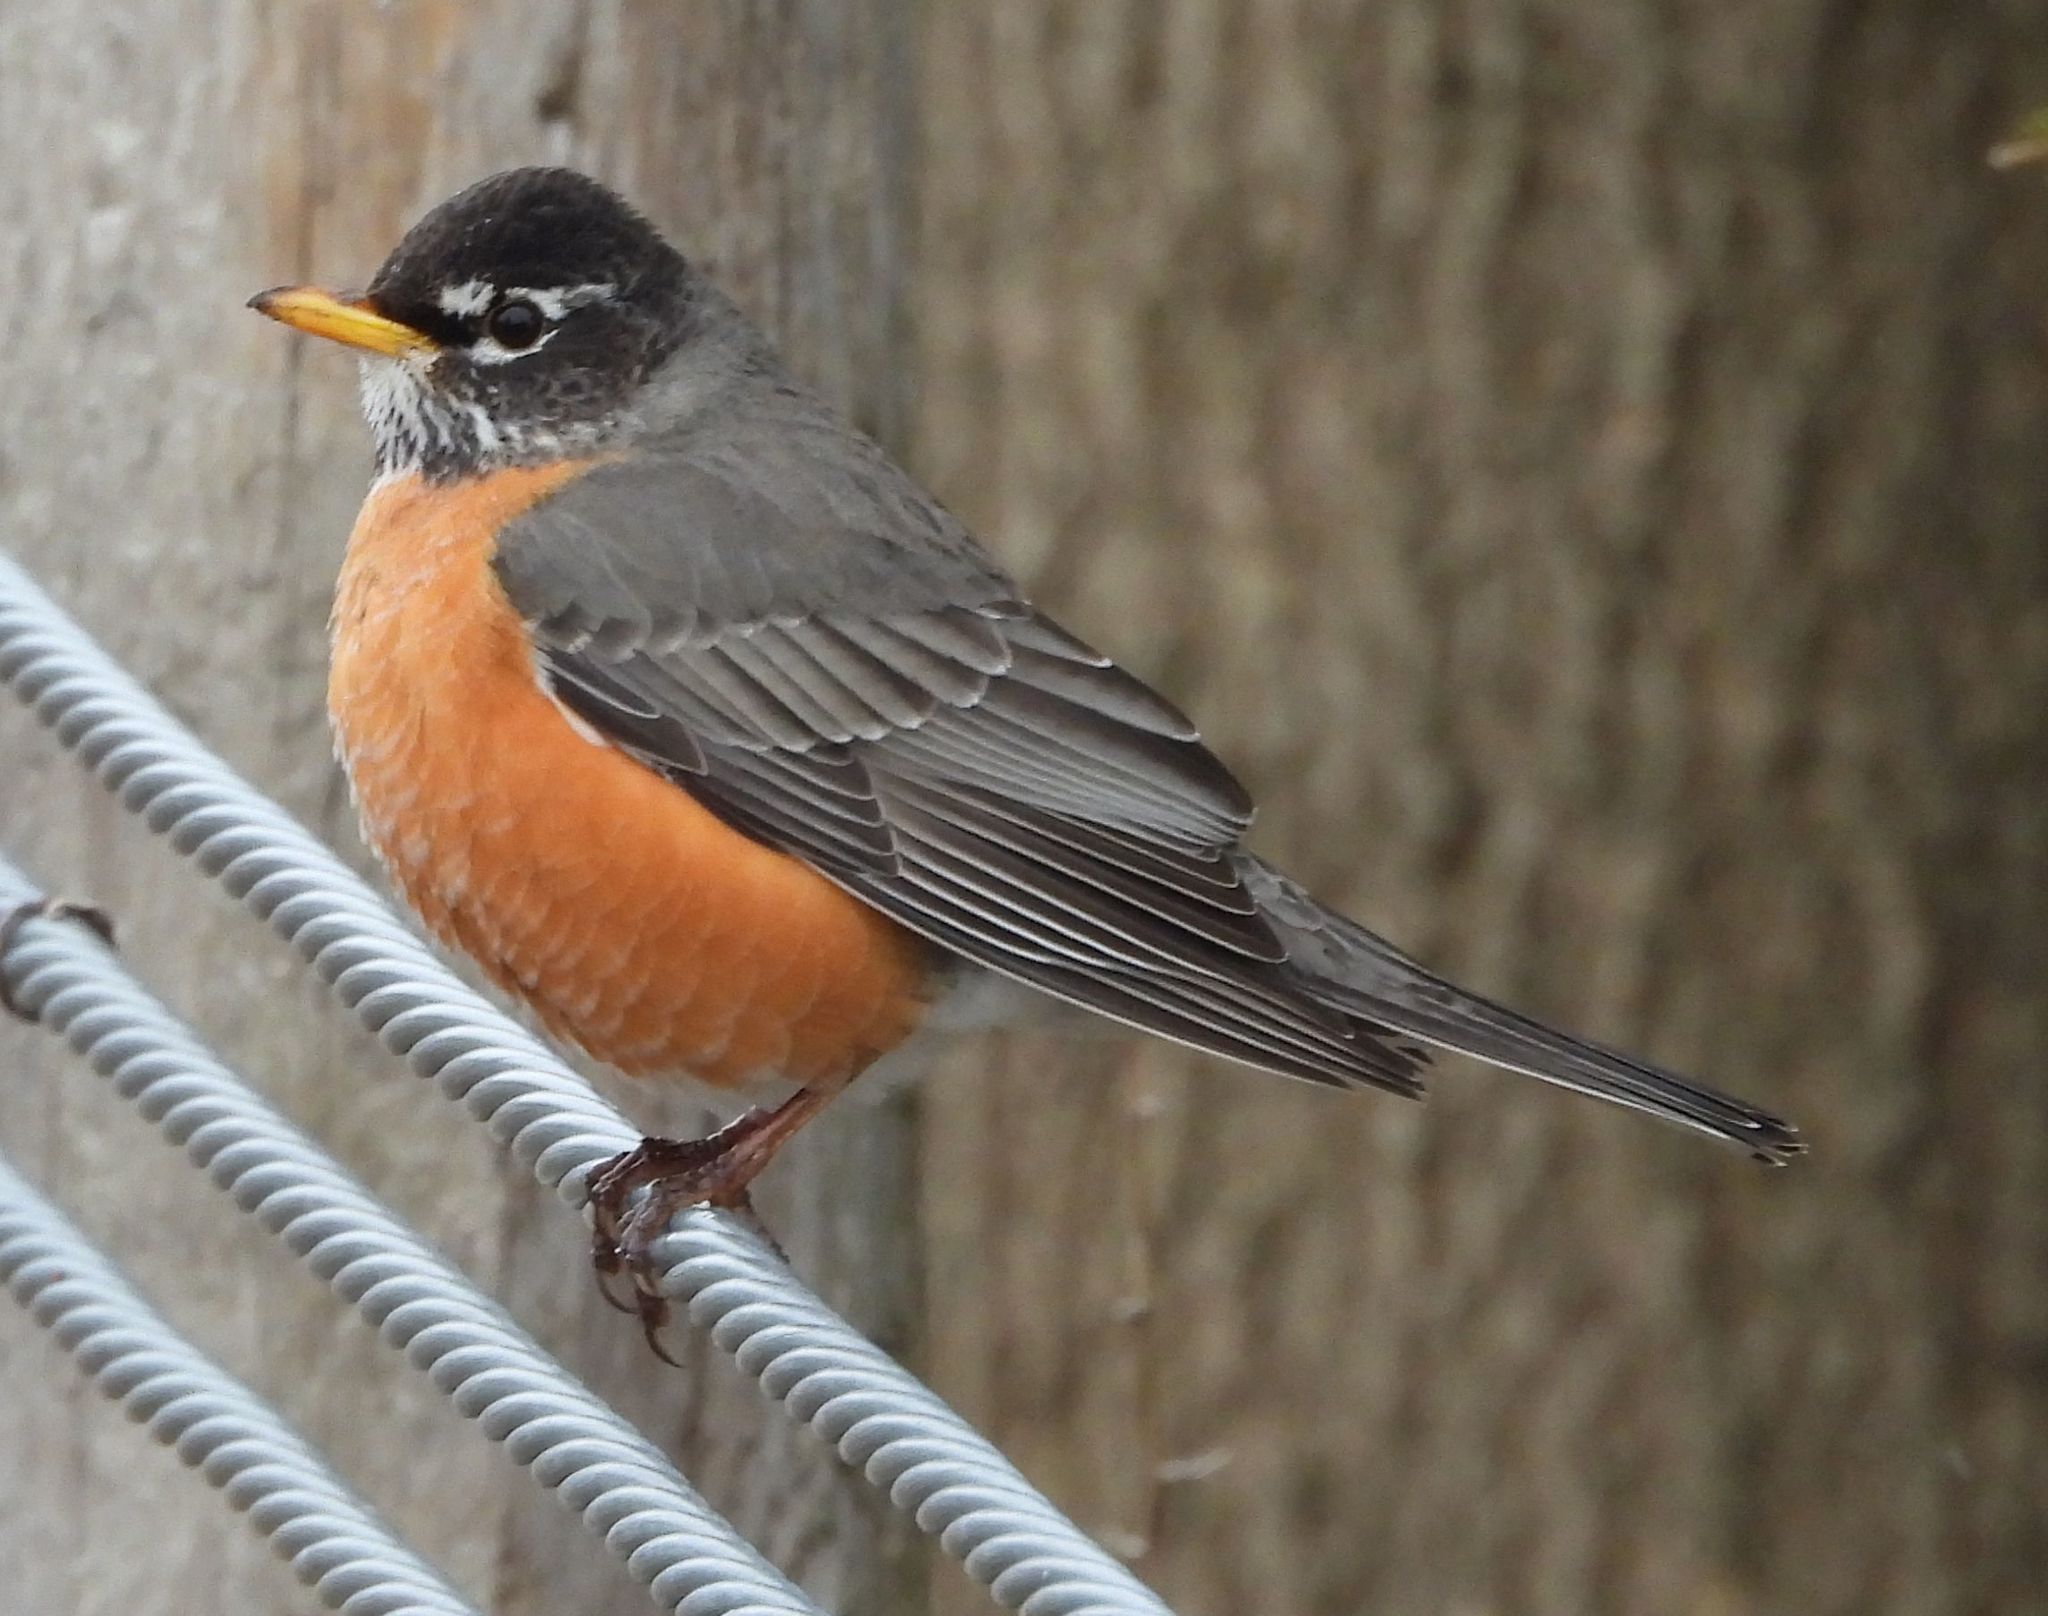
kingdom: Animalia
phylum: Chordata
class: Aves
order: Passeriformes
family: Turdidae
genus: Turdus
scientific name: Turdus migratorius
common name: American robin
